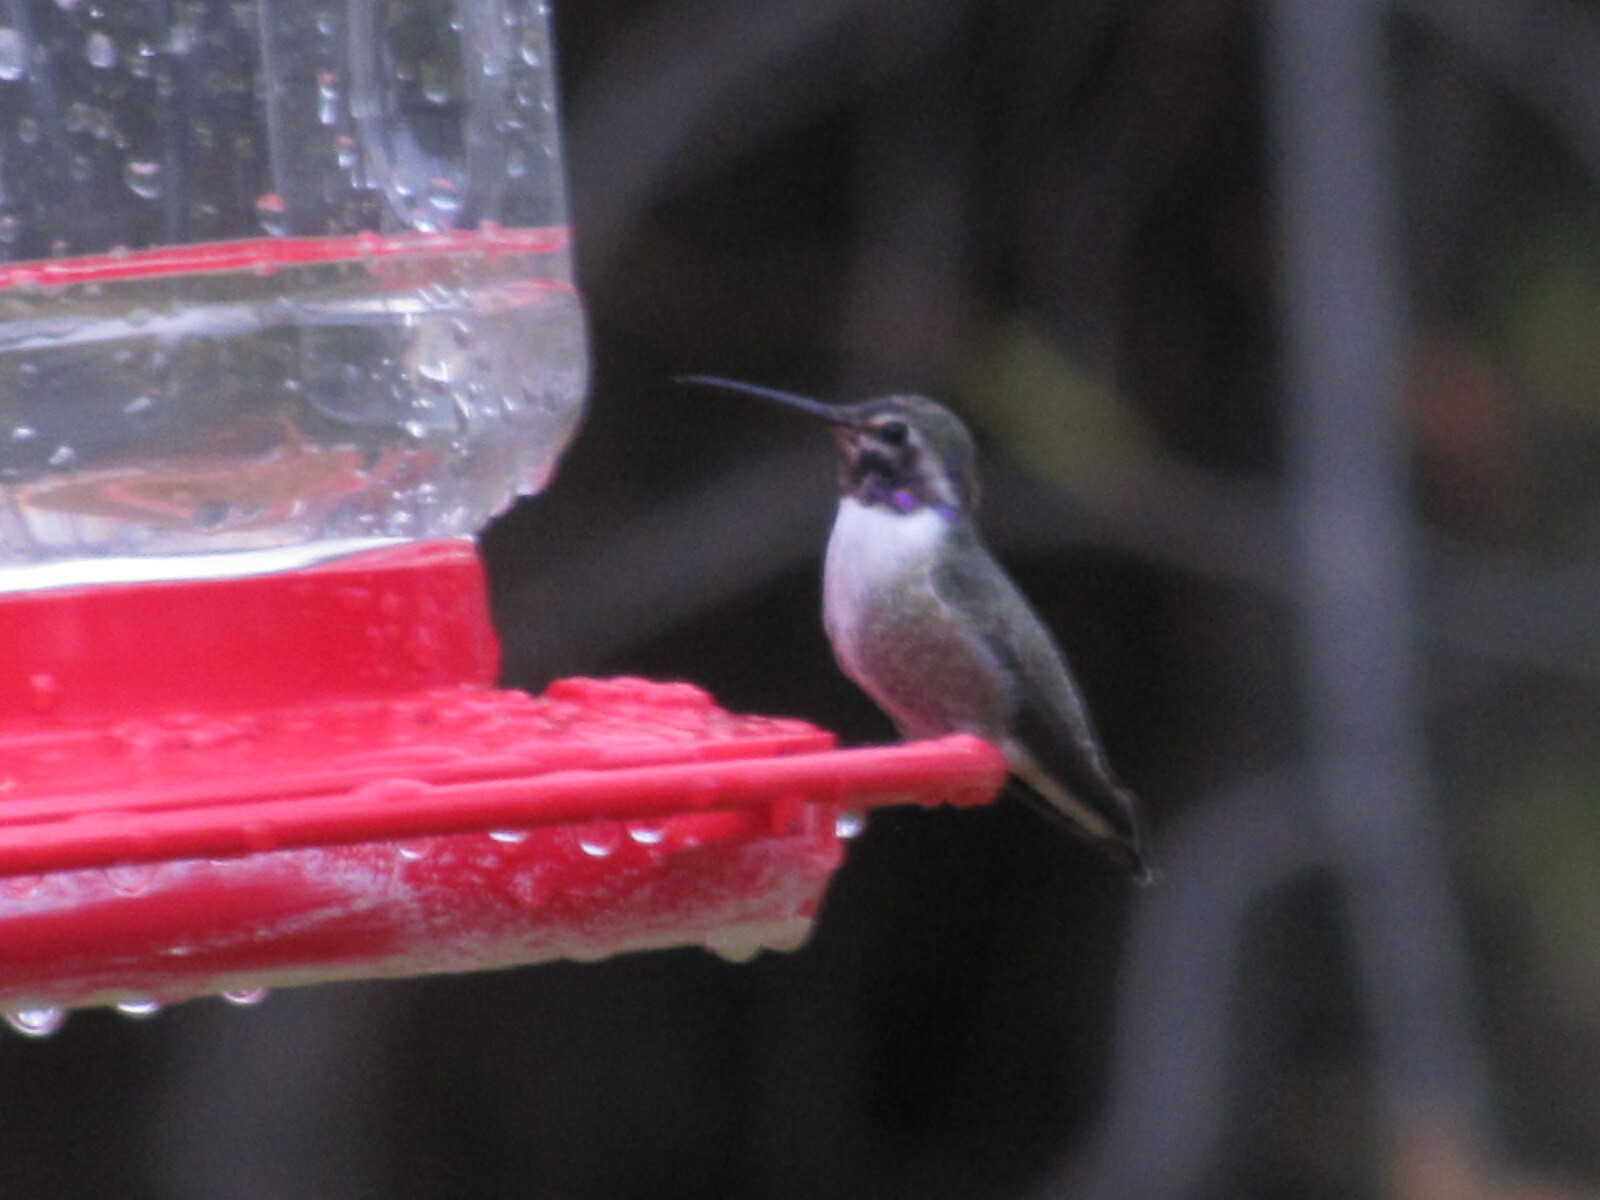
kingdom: Animalia
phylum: Chordata
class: Aves
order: Apodiformes
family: Trochilidae
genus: Calypte
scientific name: Calypte costae
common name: Costa's hummingbird
